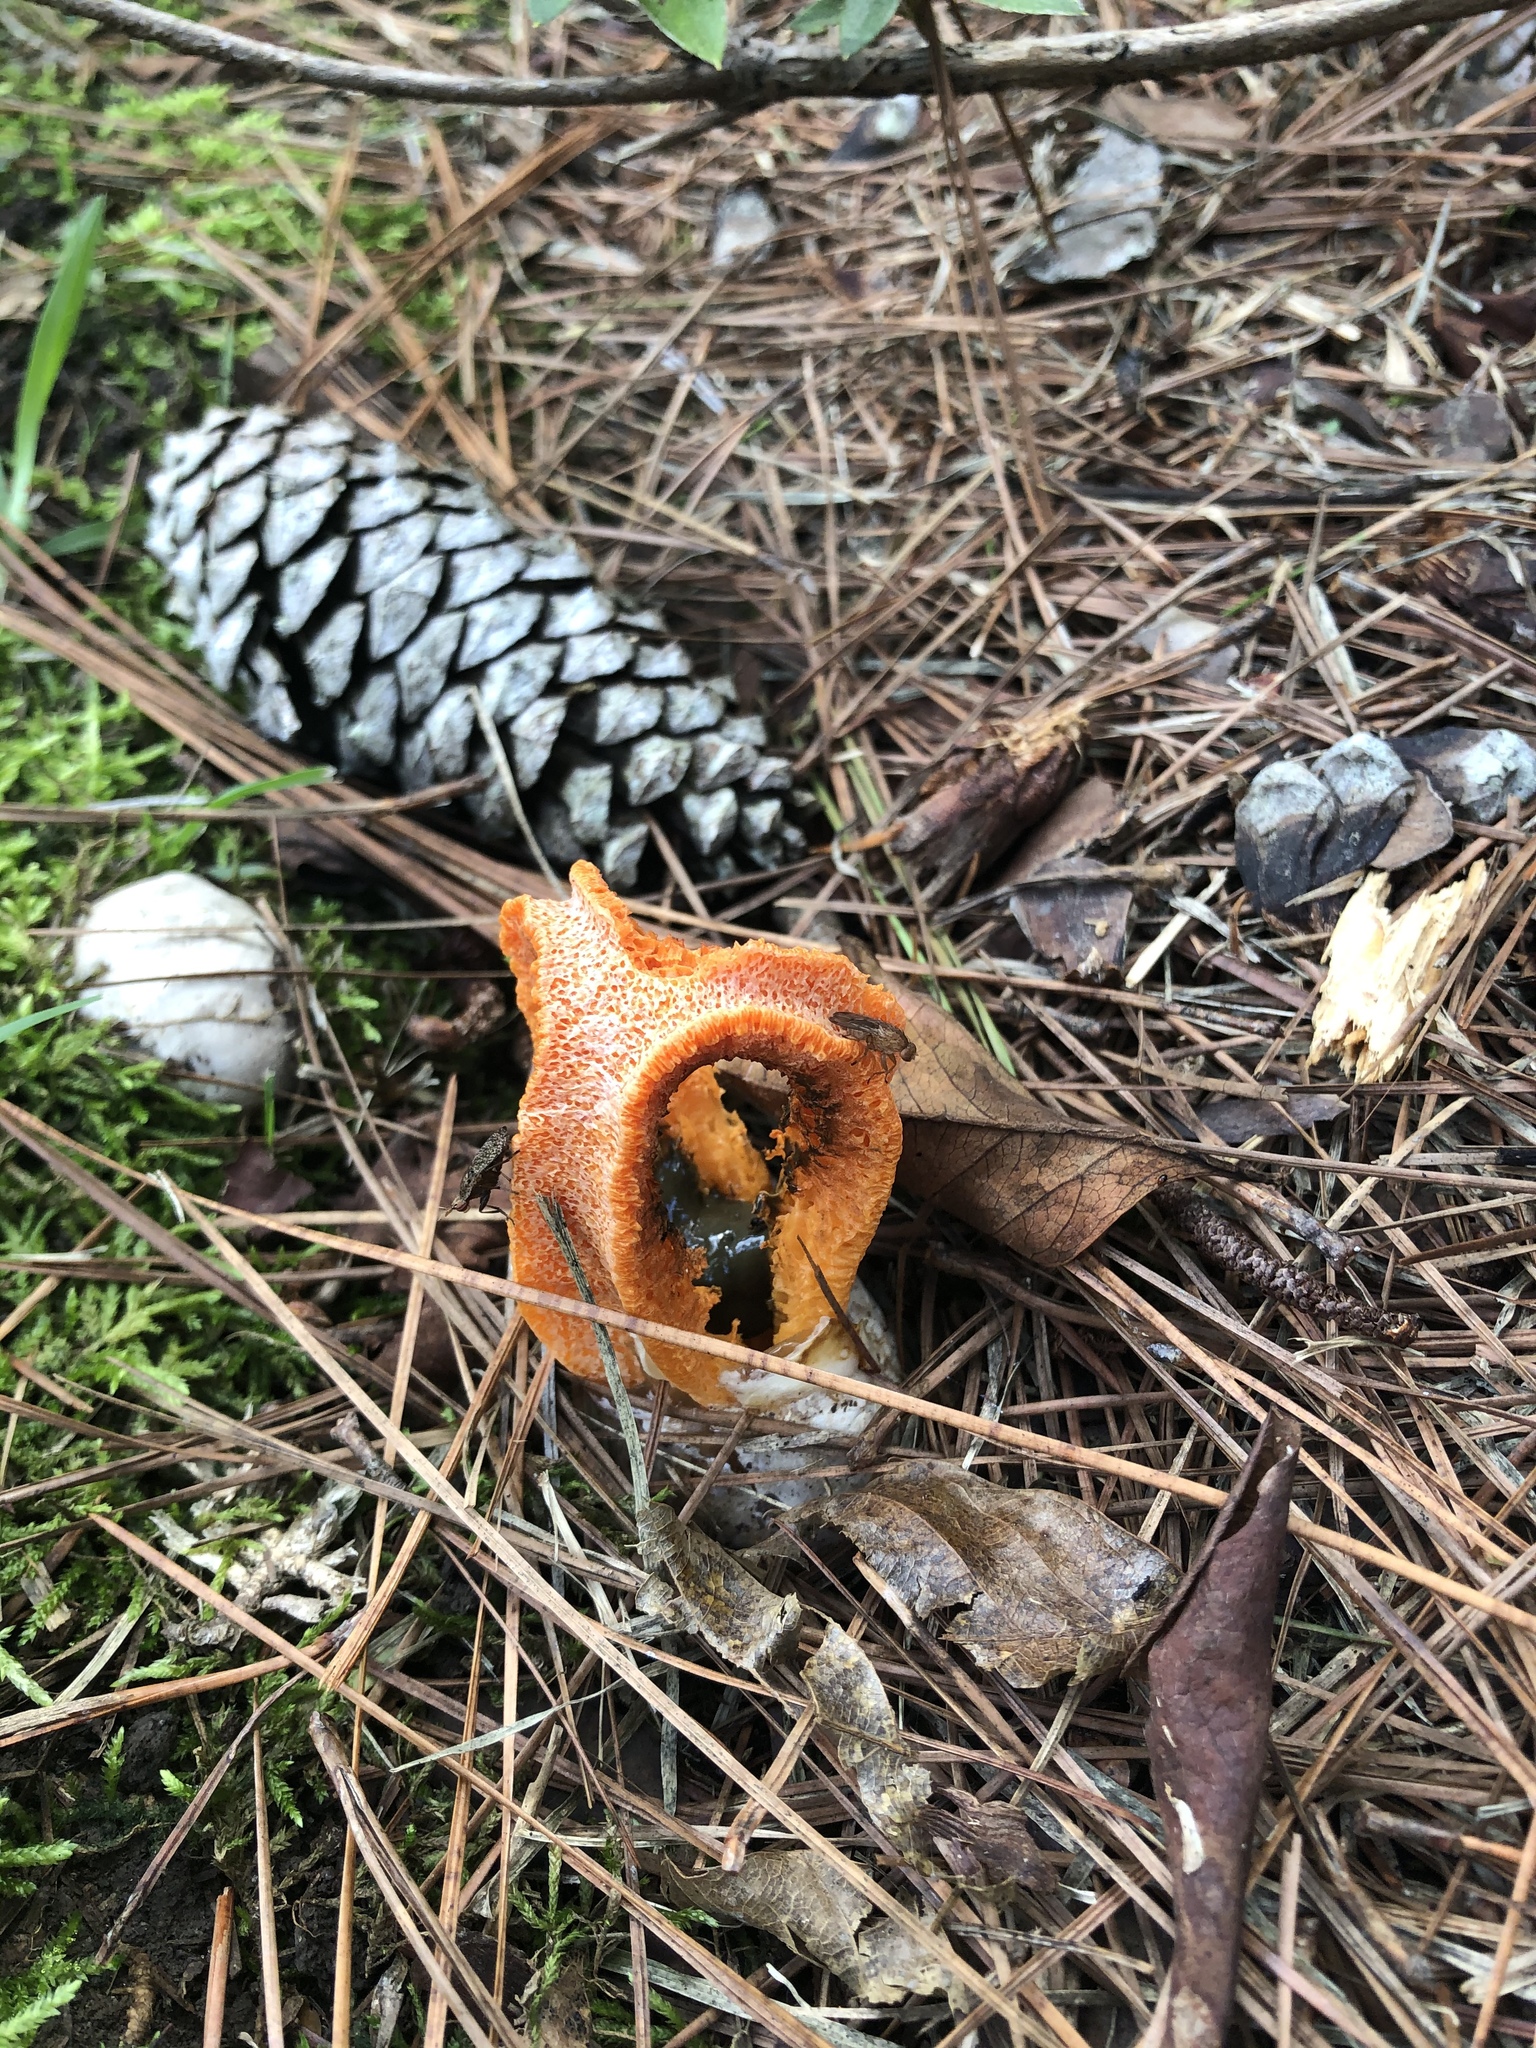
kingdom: Fungi
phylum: Basidiomycota
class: Agaricomycetes
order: Phallales
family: Phallaceae
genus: Clathrus
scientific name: Clathrus columnatus
